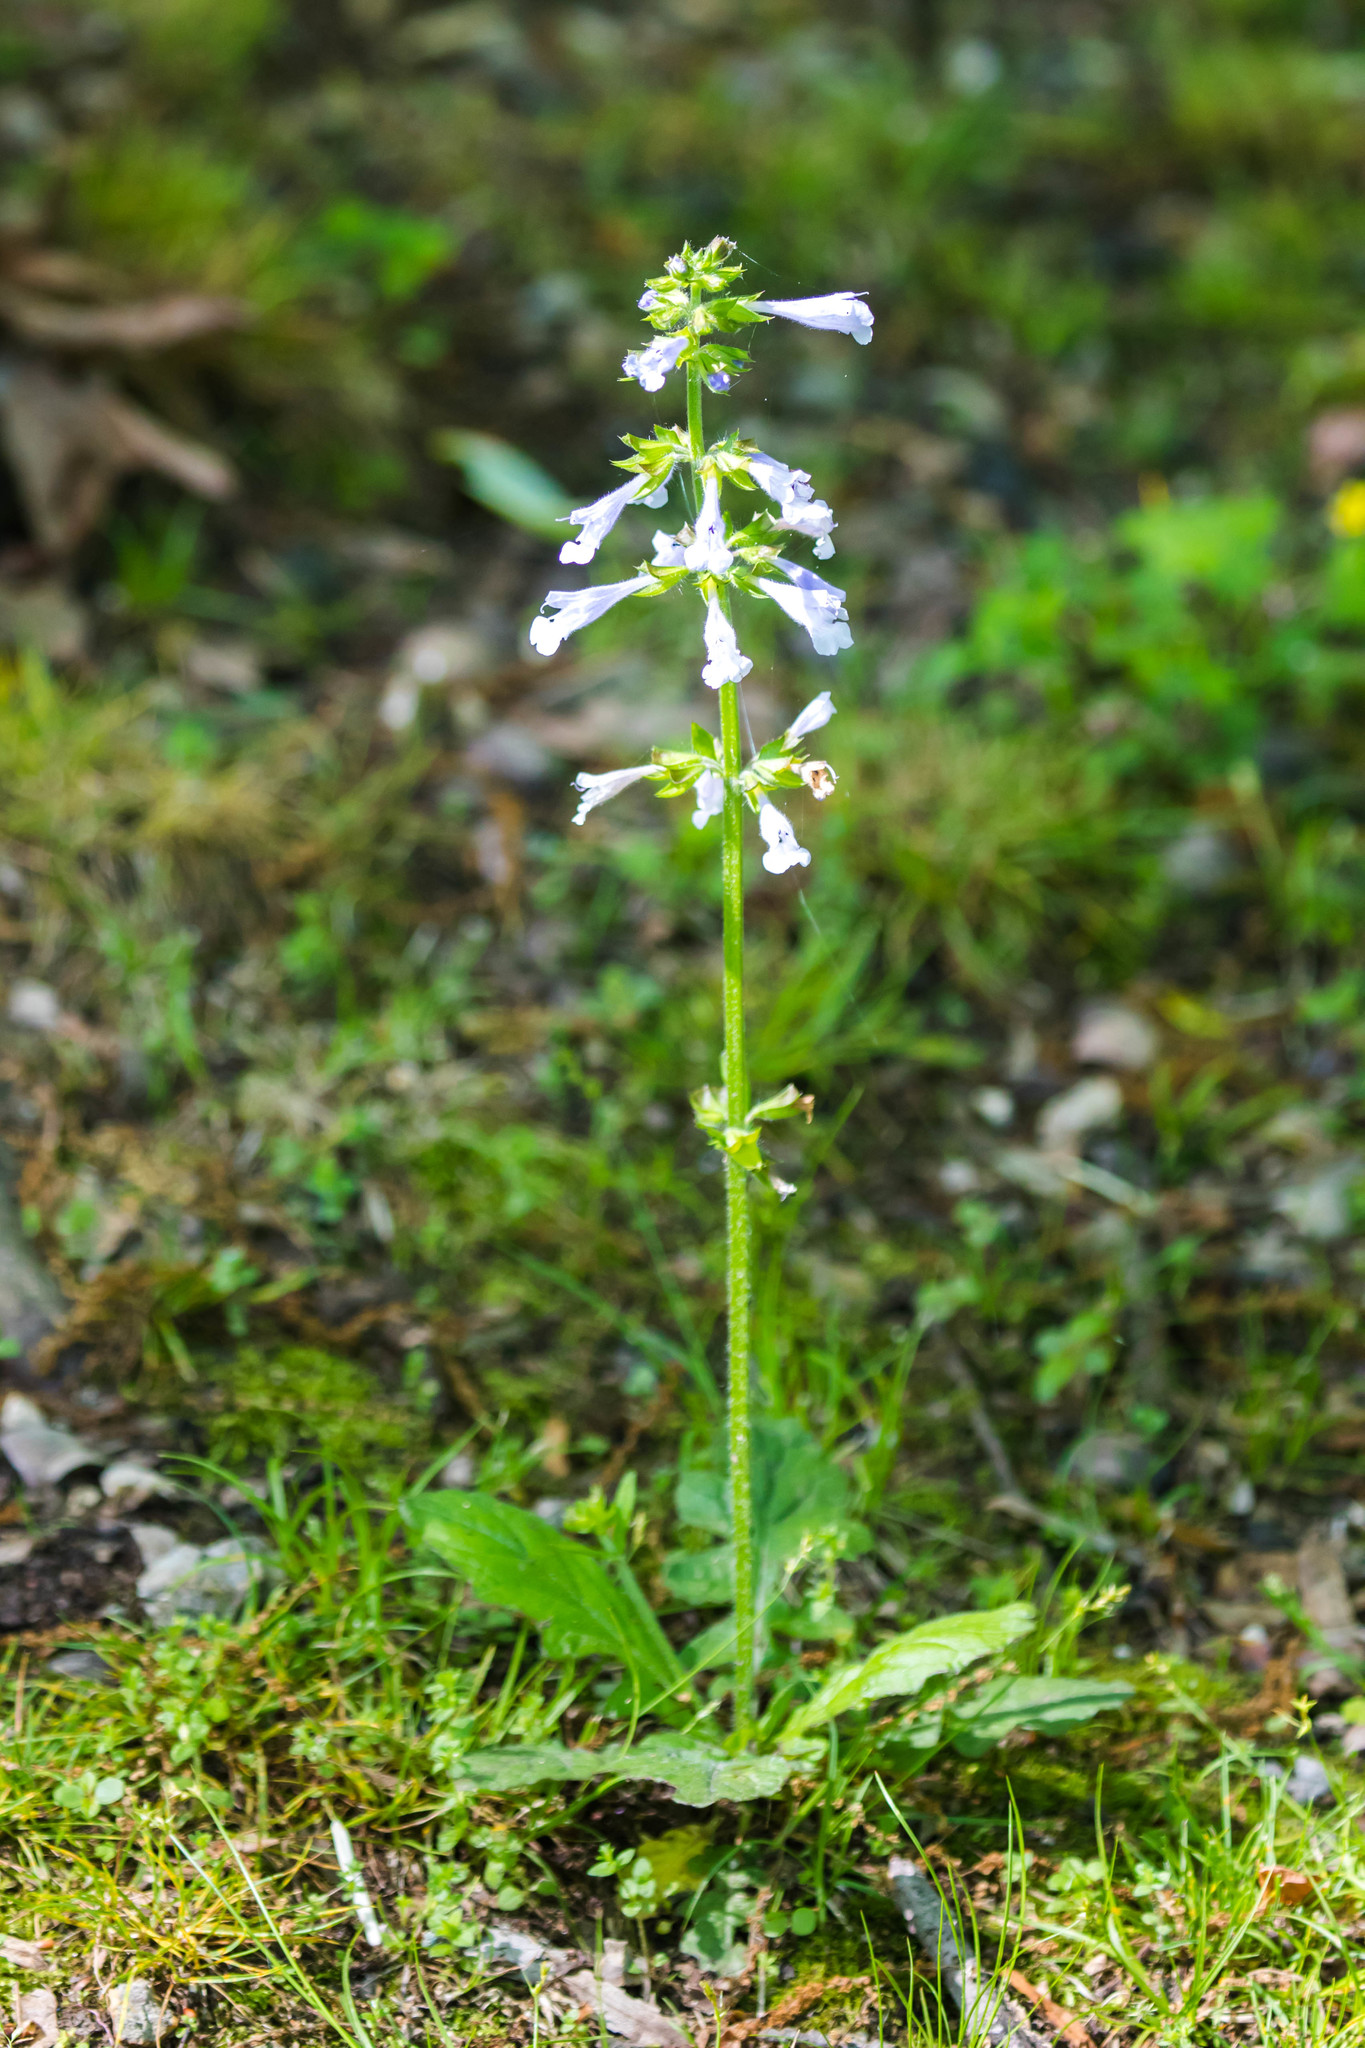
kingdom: Plantae
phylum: Tracheophyta
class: Magnoliopsida
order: Lamiales
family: Lamiaceae
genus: Salvia
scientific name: Salvia lyrata
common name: Cancerweed
